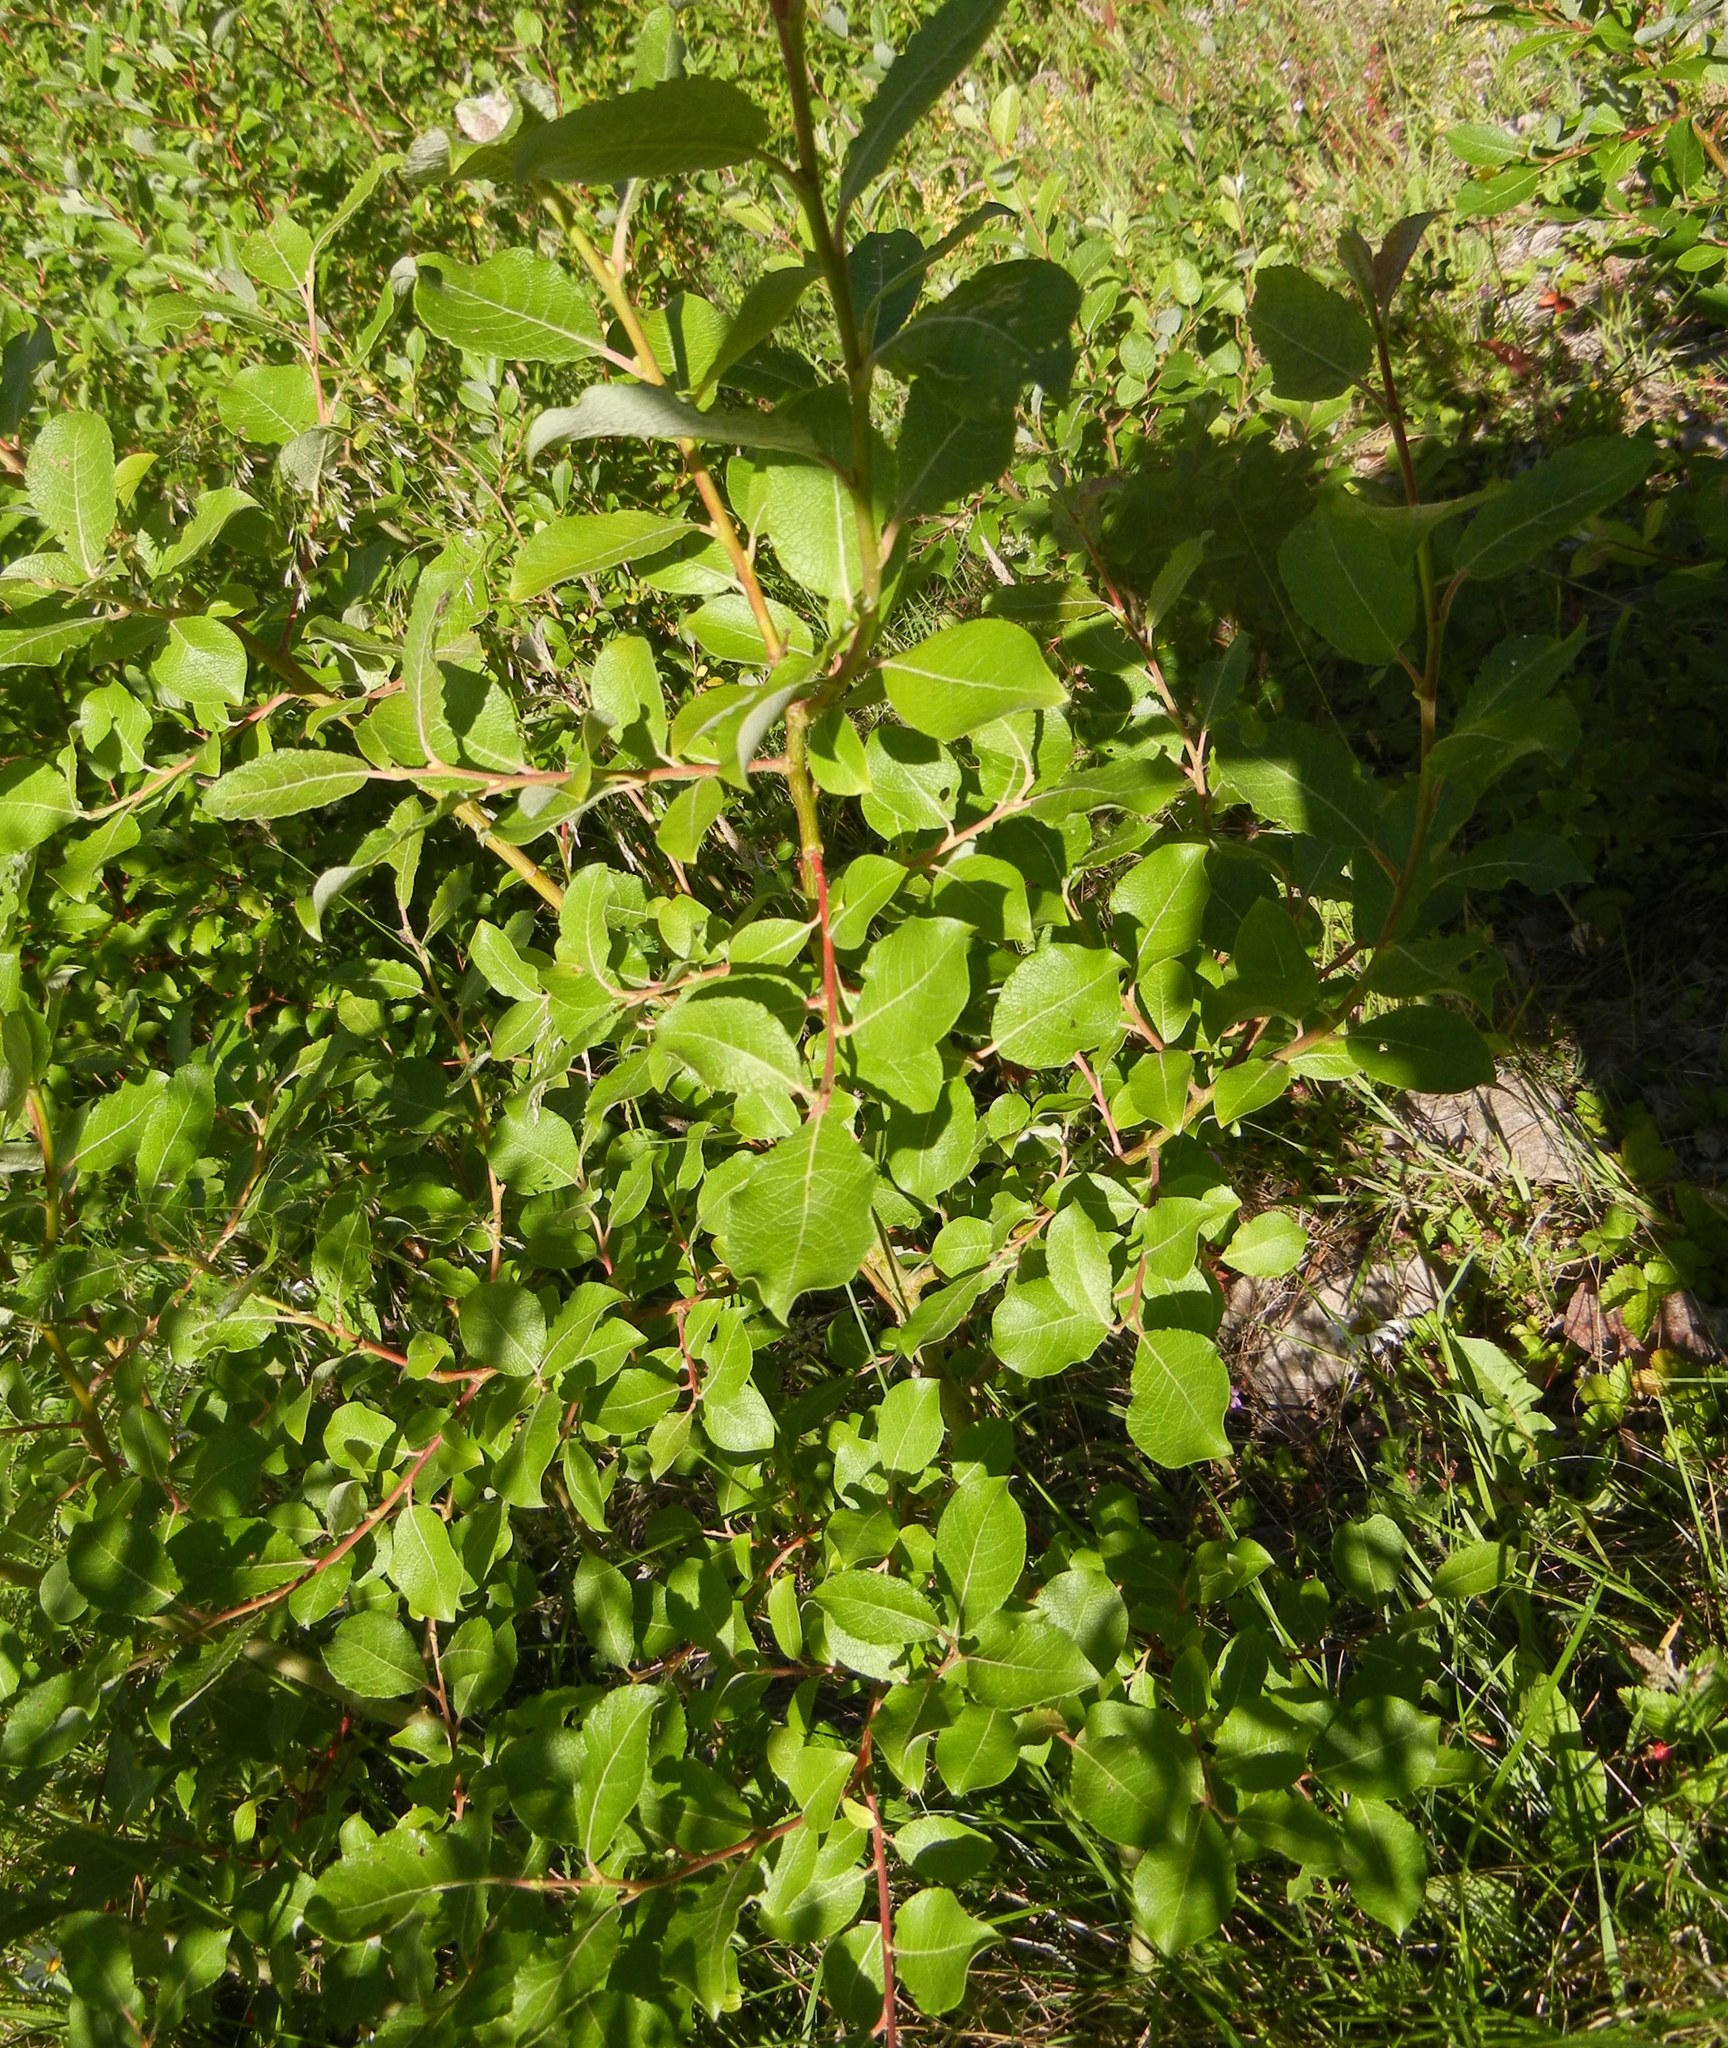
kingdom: Plantae
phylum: Tracheophyta
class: Magnoliopsida
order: Malpighiales
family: Salicaceae
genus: Salix
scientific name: Salix caprea
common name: Goat willow
